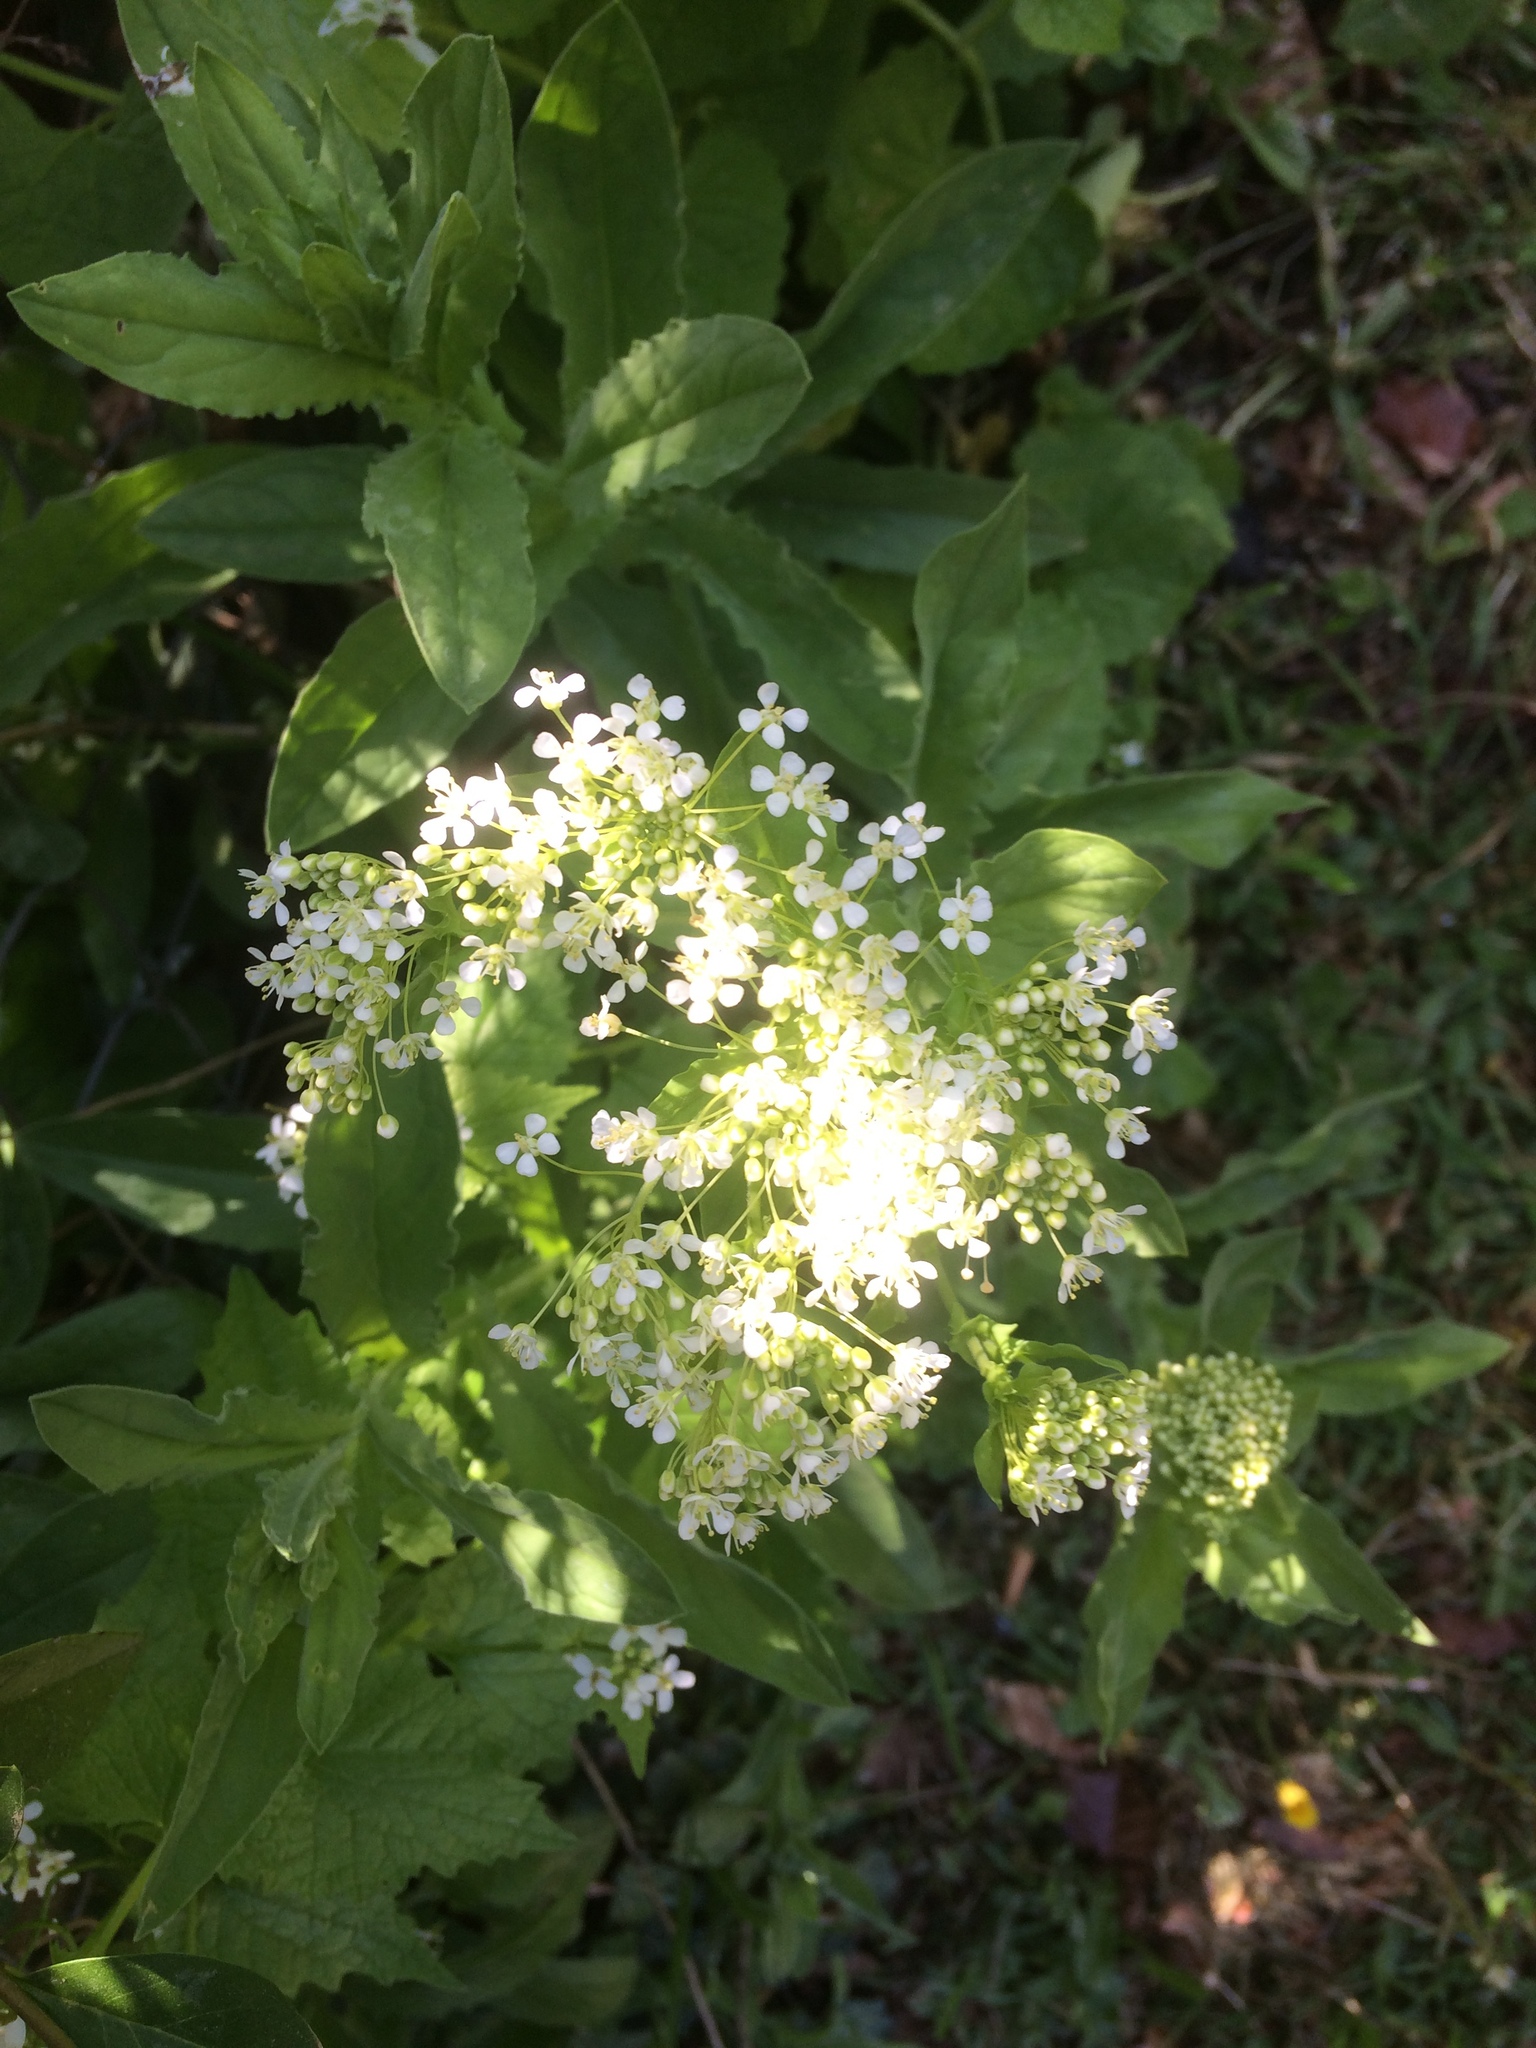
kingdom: Plantae
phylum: Tracheophyta
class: Magnoliopsida
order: Brassicales
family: Brassicaceae
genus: Lepidium
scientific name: Lepidium draba
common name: Hoary cress
